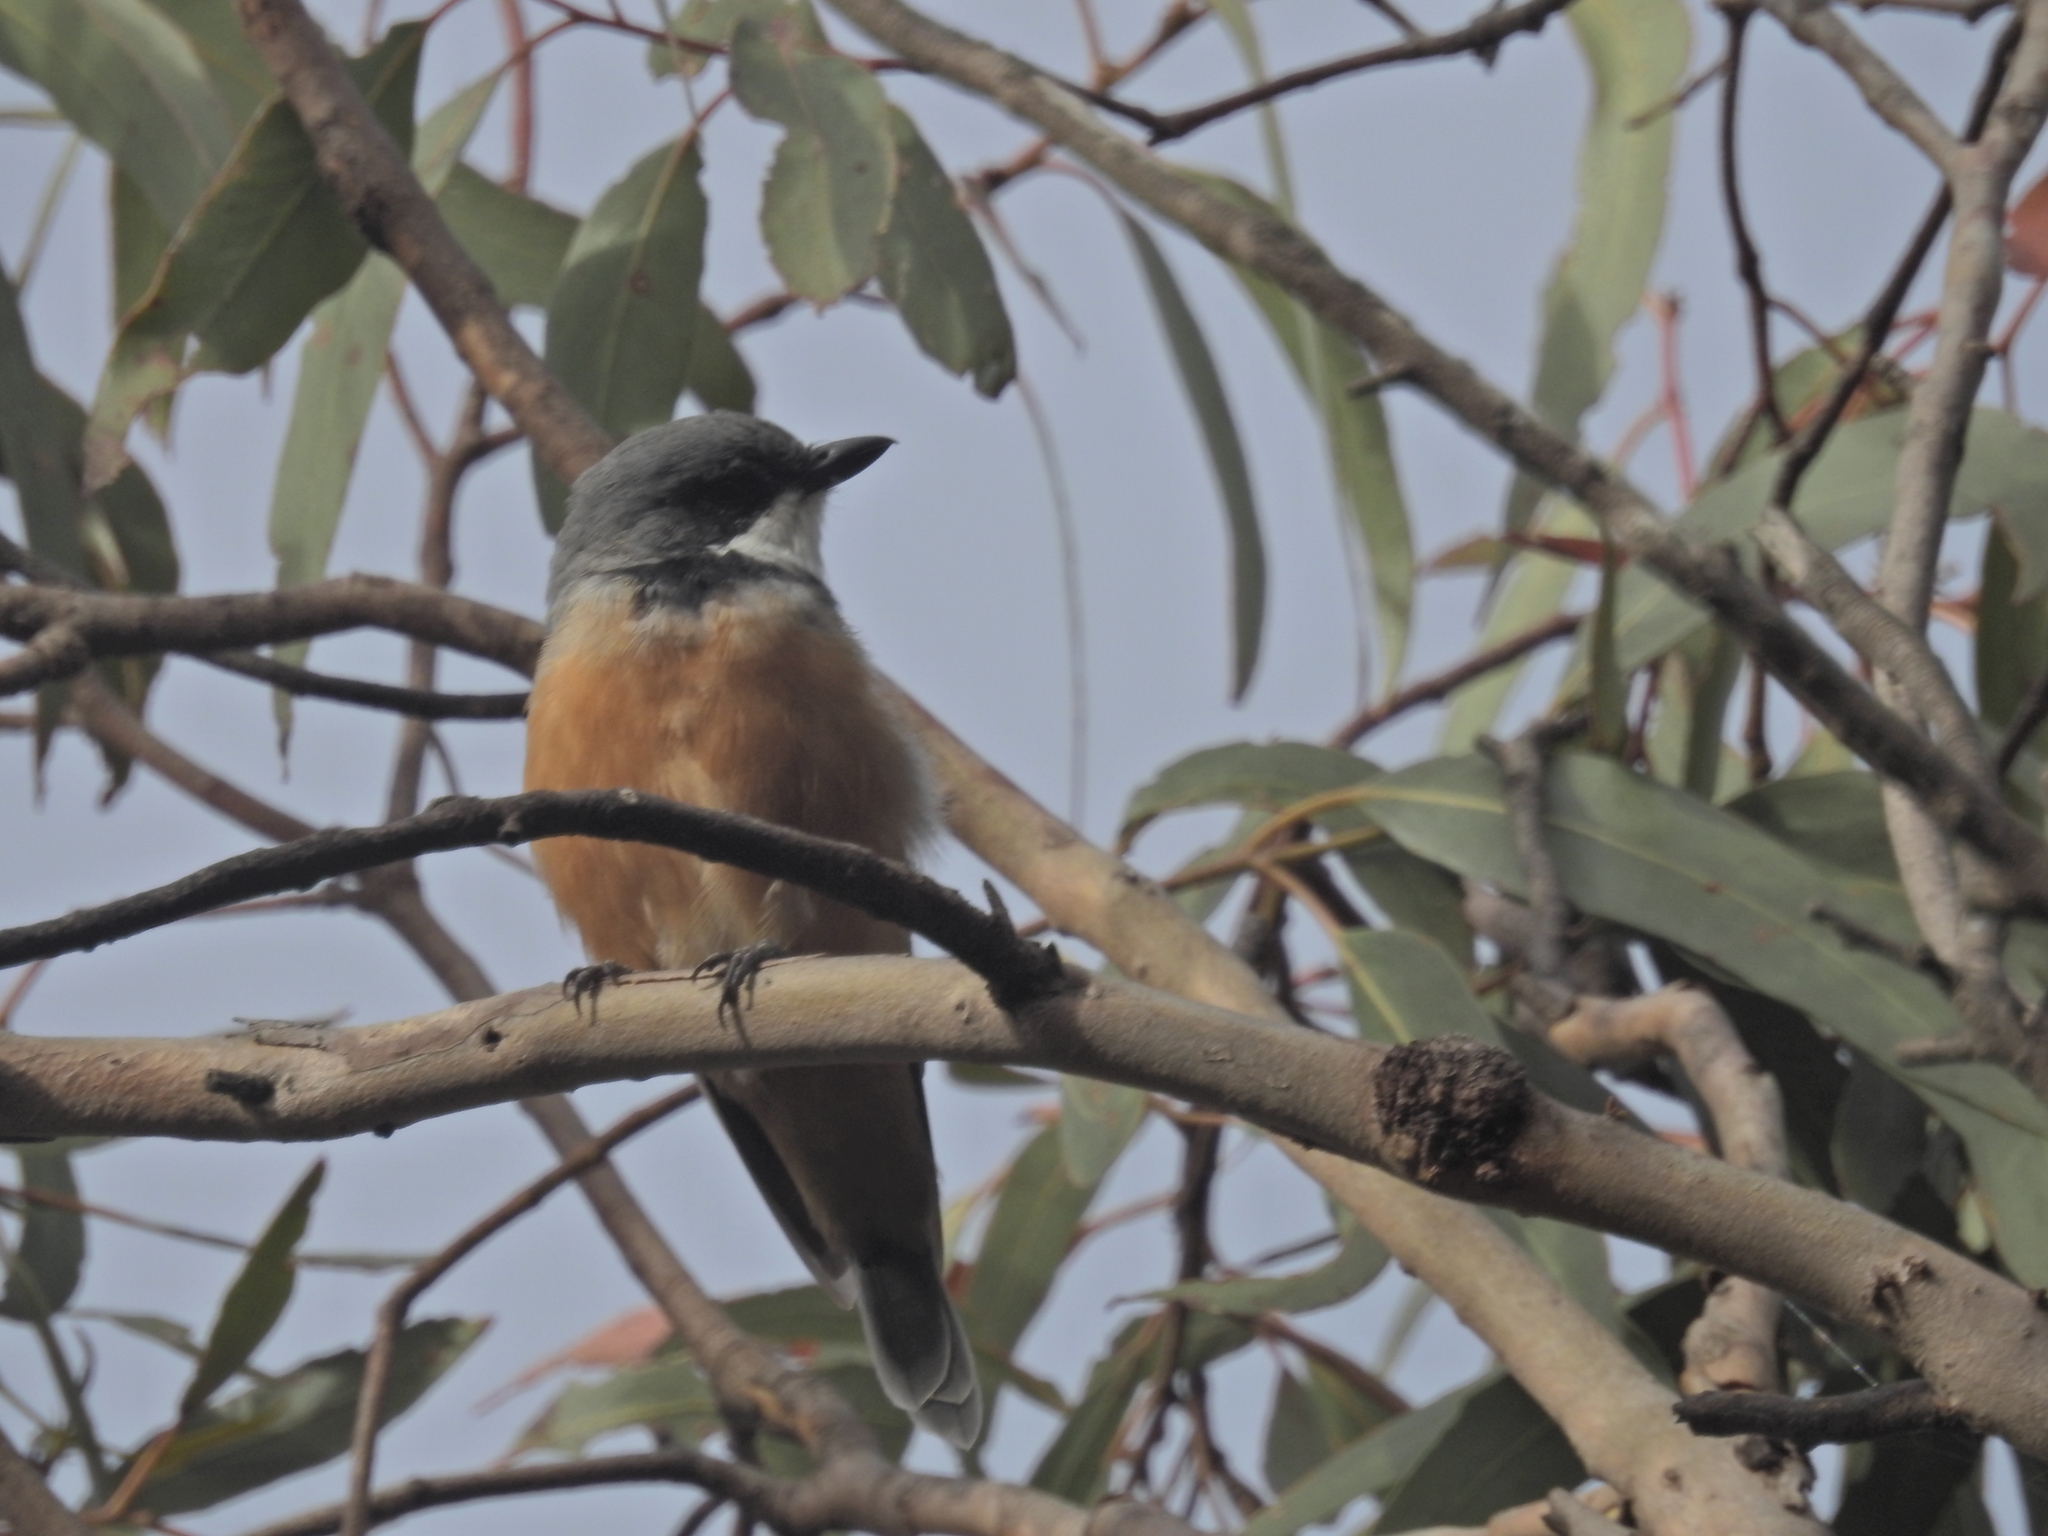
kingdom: Animalia
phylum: Chordata
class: Aves
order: Passeriformes
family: Pachycephalidae
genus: Pachycephala
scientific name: Pachycephala rufiventris
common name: Rufous whistler
